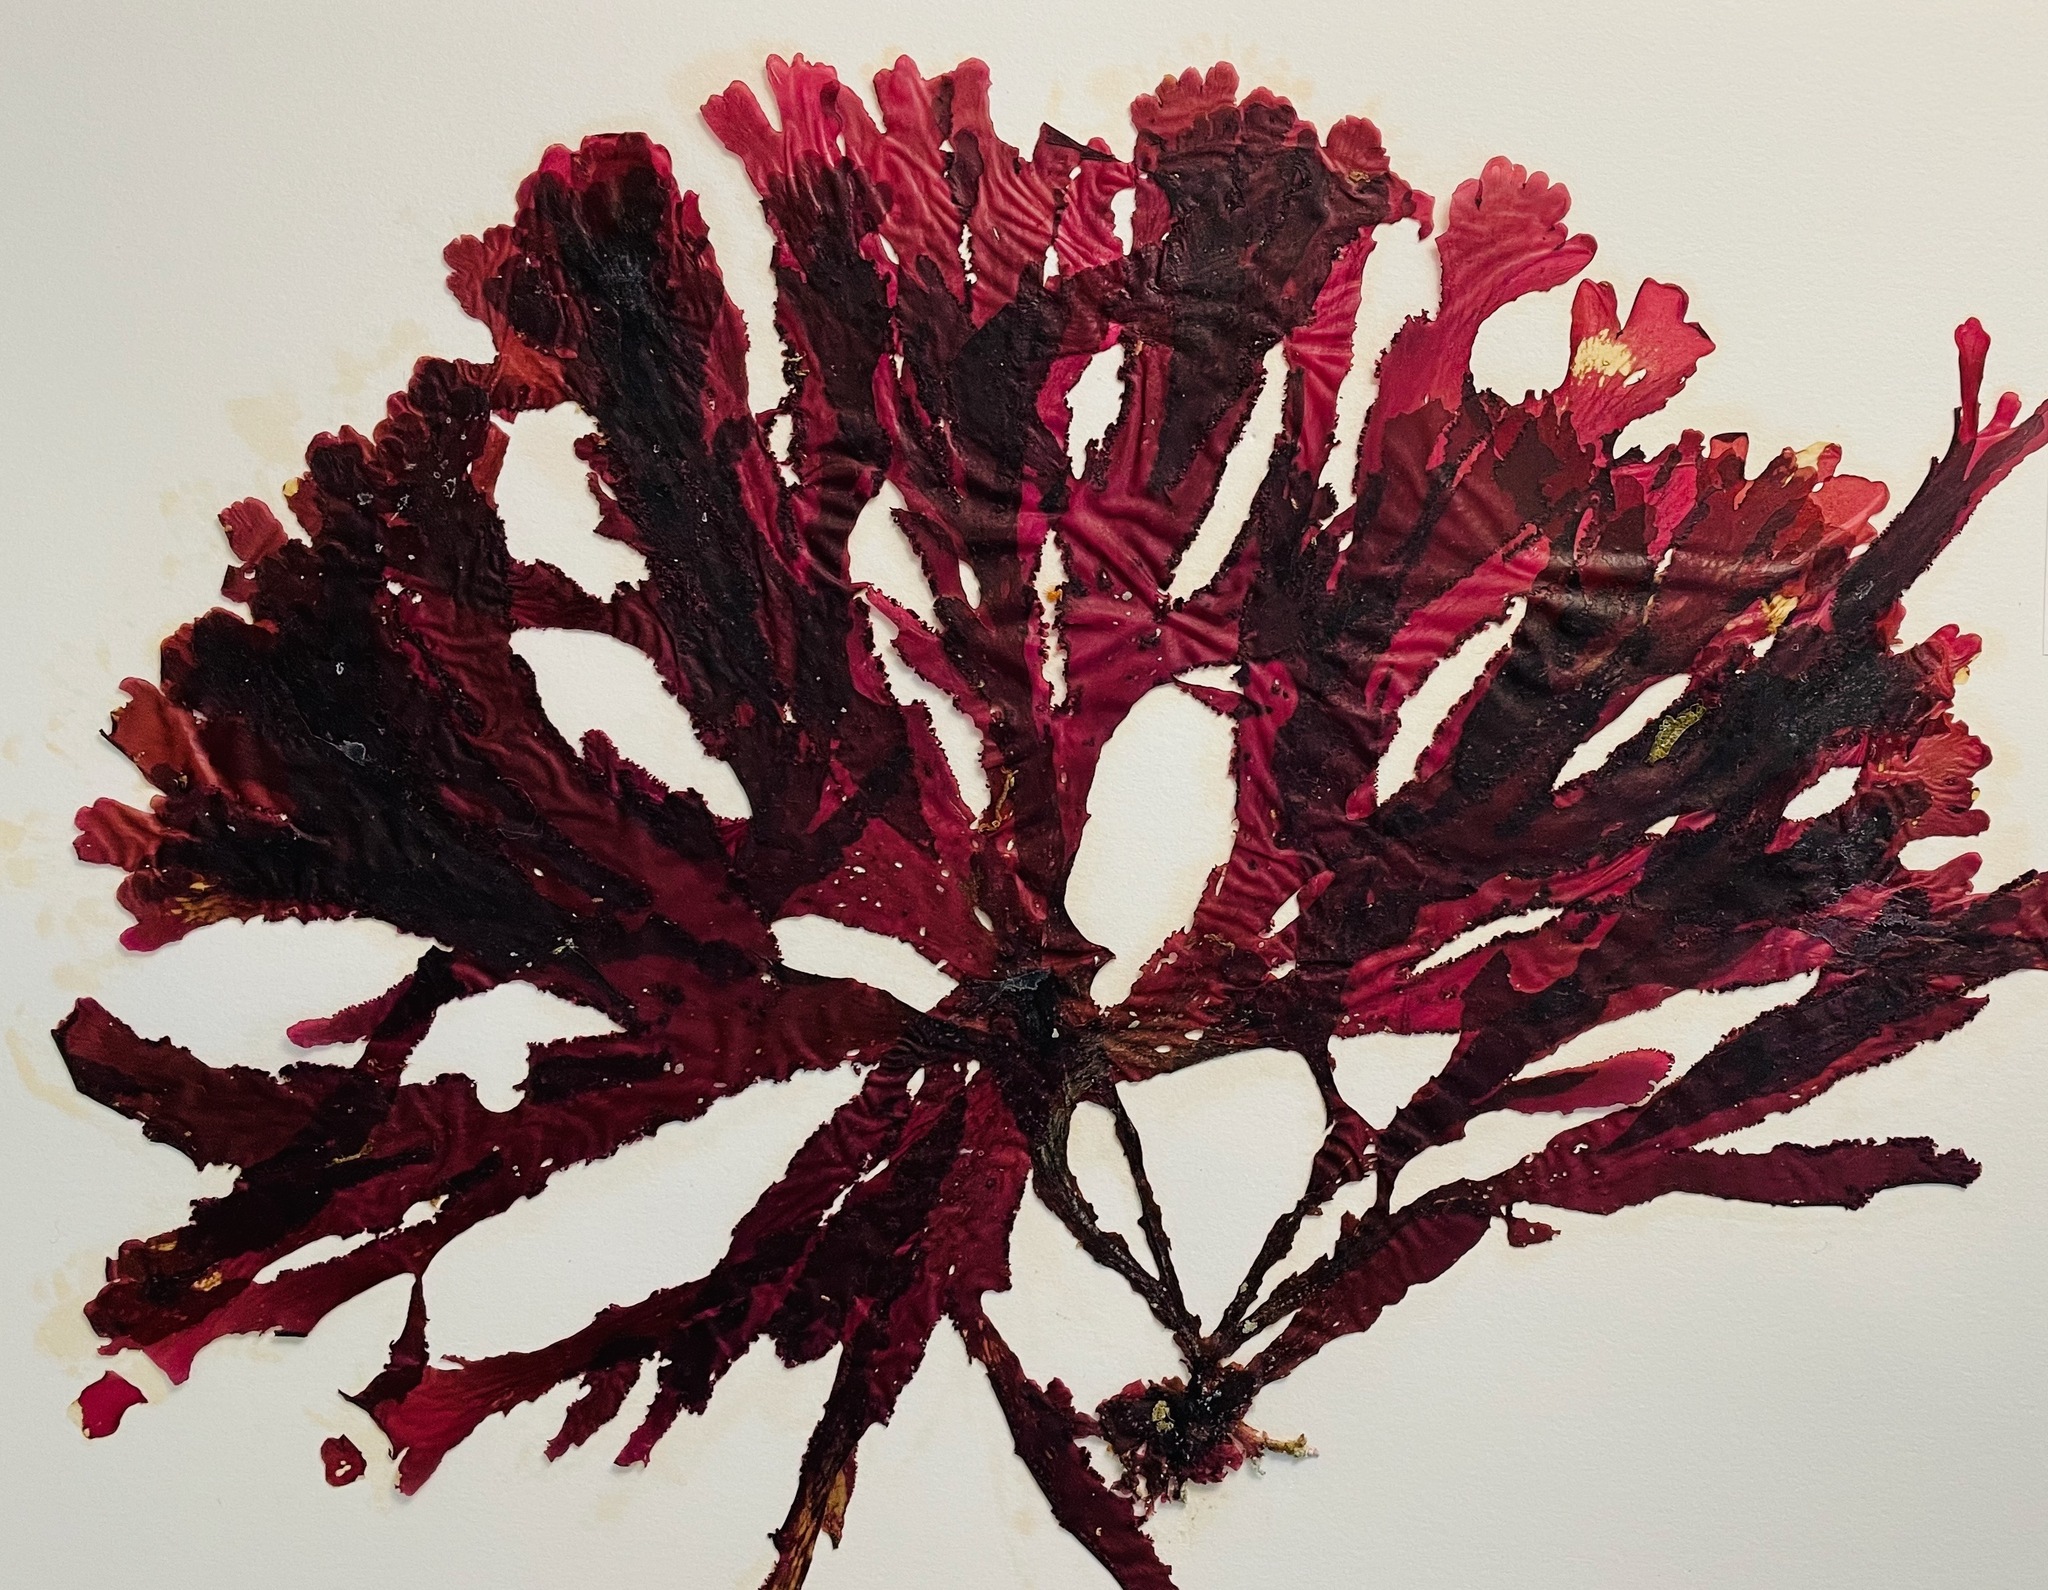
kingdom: Plantae
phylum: Rhodophyta
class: Florideophyceae
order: Ceramiales
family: Delesseriaceae
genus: Cryptopleura
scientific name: Cryptopleura ruprechtiana
